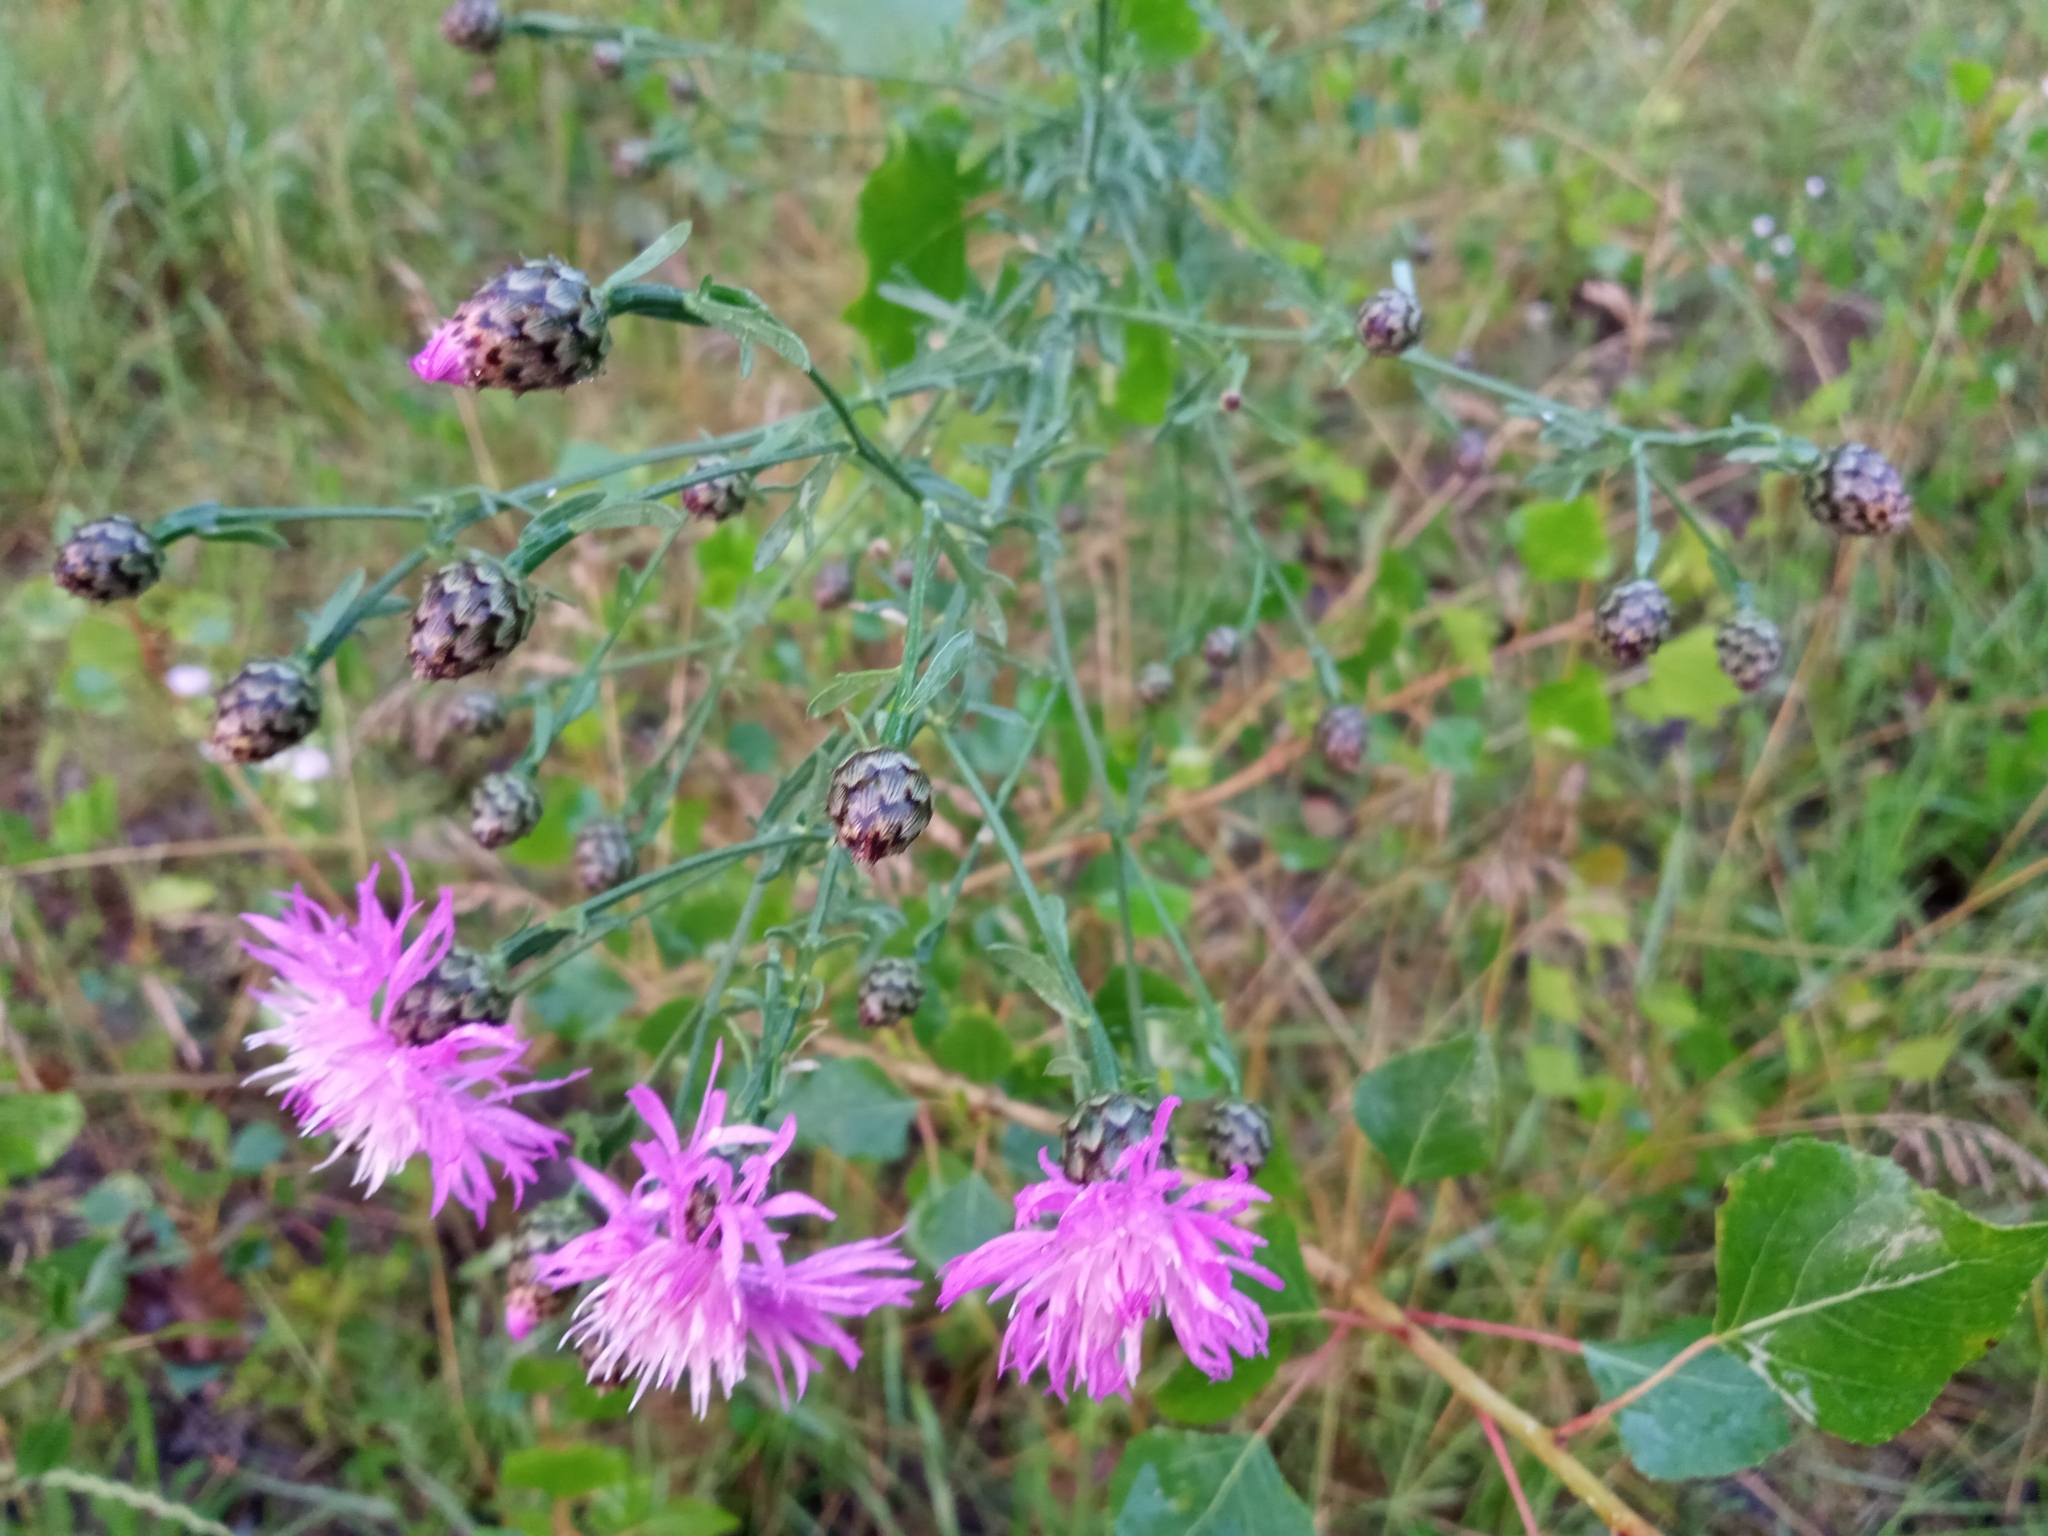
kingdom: Plantae
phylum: Tracheophyta
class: Magnoliopsida
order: Asterales
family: Asteraceae
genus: Centaurea
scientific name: Centaurea stoebe
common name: Spotted knapweed
